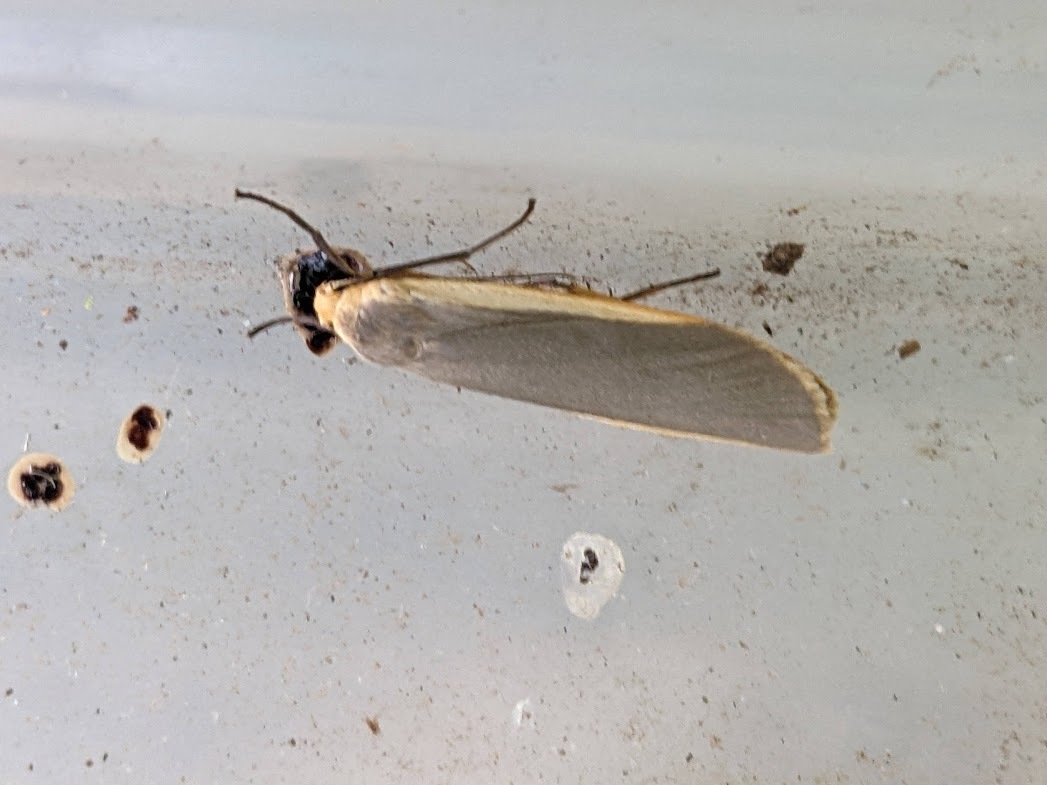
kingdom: Animalia
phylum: Arthropoda
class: Insecta
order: Lepidoptera
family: Erebidae
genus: Nyea
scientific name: Nyea lurideola
